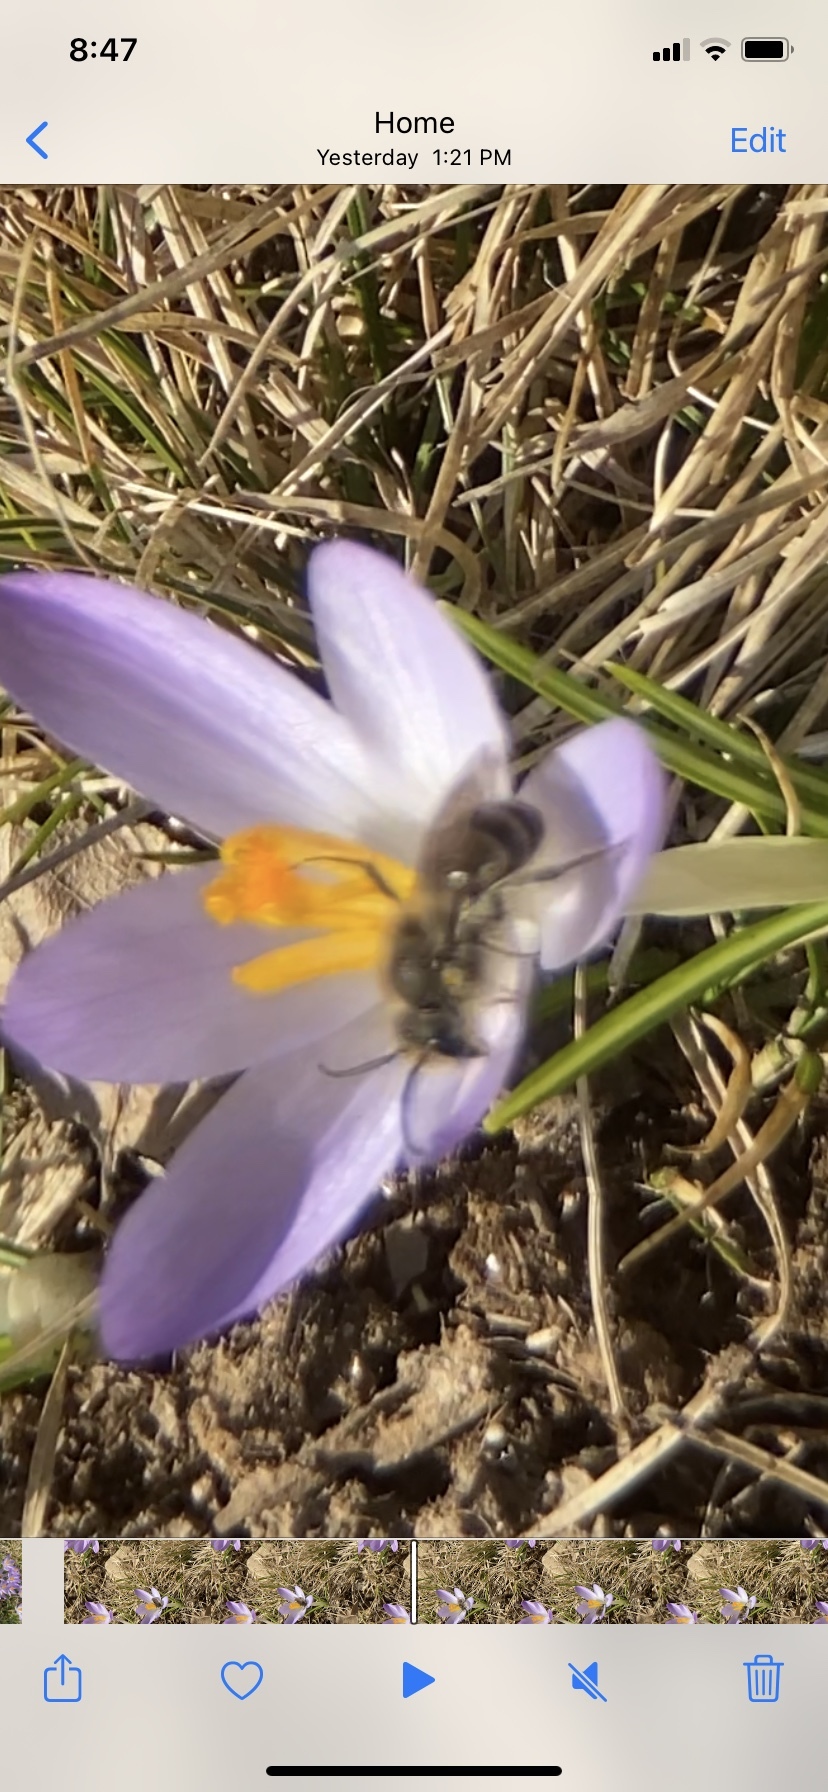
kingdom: Animalia
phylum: Arthropoda
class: Insecta
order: Hymenoptera
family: Colletidae
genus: Colletes
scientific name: Colletes inaequalis
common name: Unequal cellophane bee
